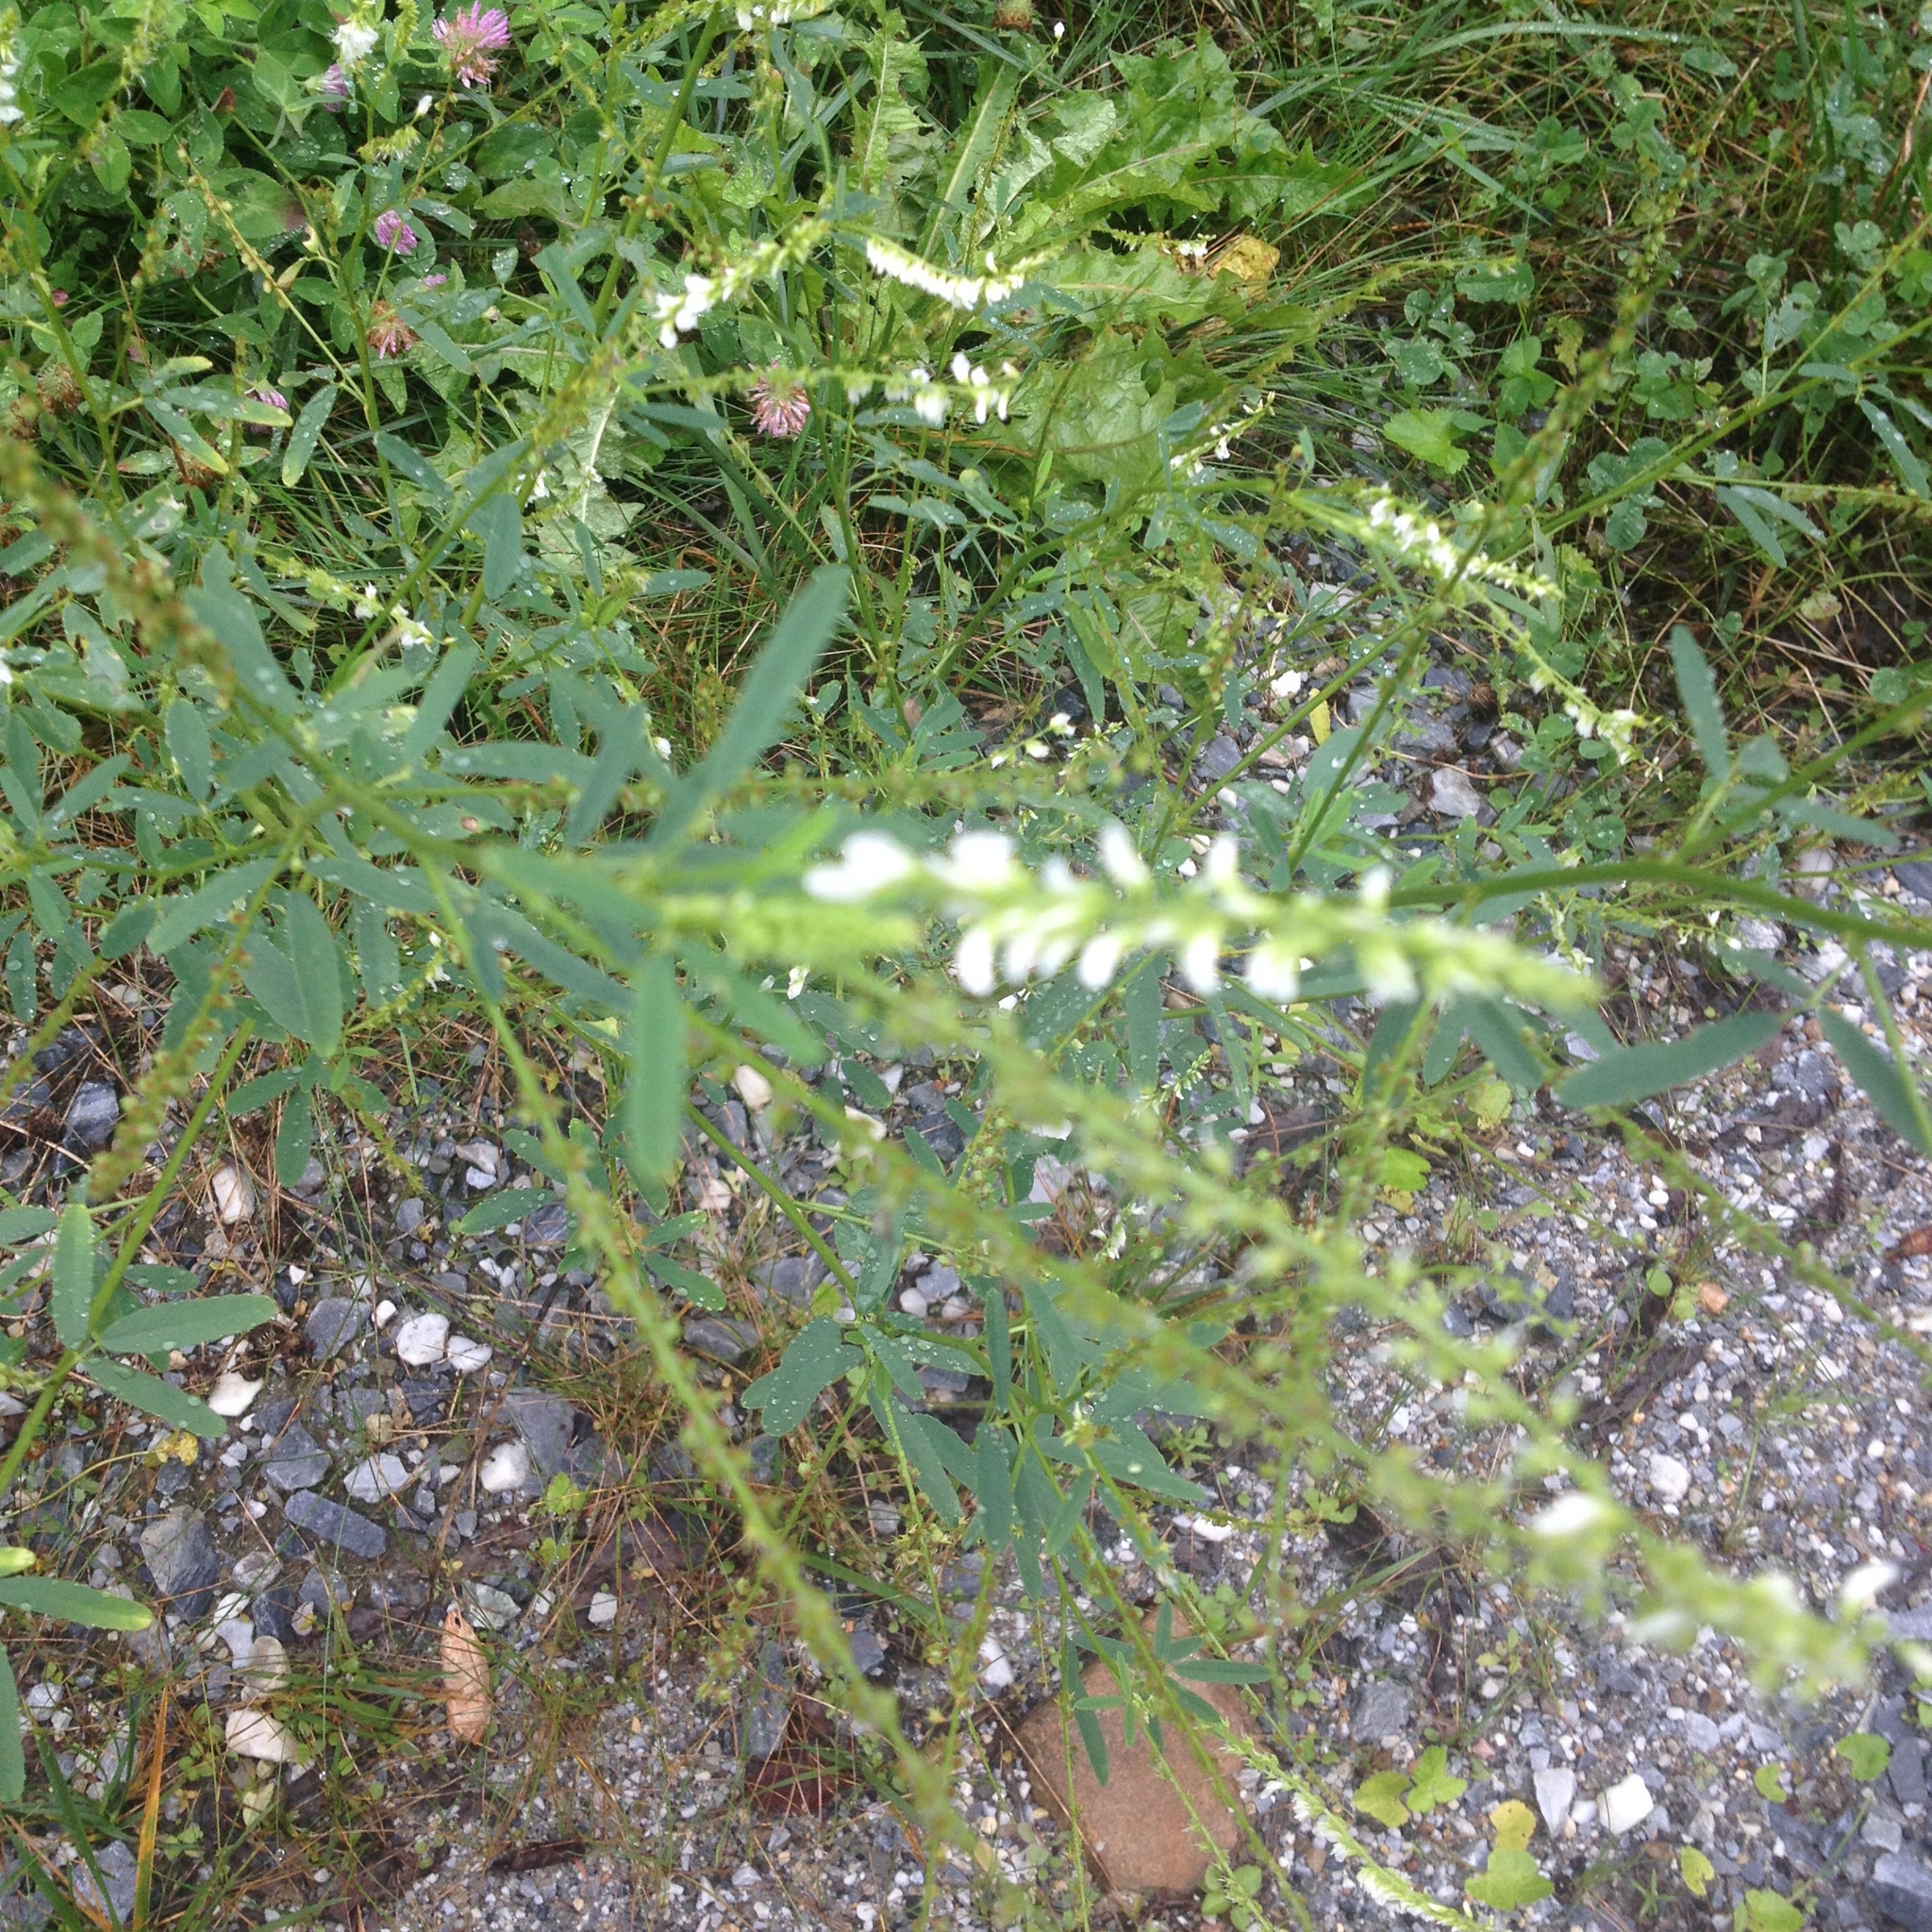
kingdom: Plantae
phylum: Tracheophyta
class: Magnoliopsida
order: Fabales
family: Fabaceae
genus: Melilotus
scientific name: Melilotus albus
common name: White melilot
